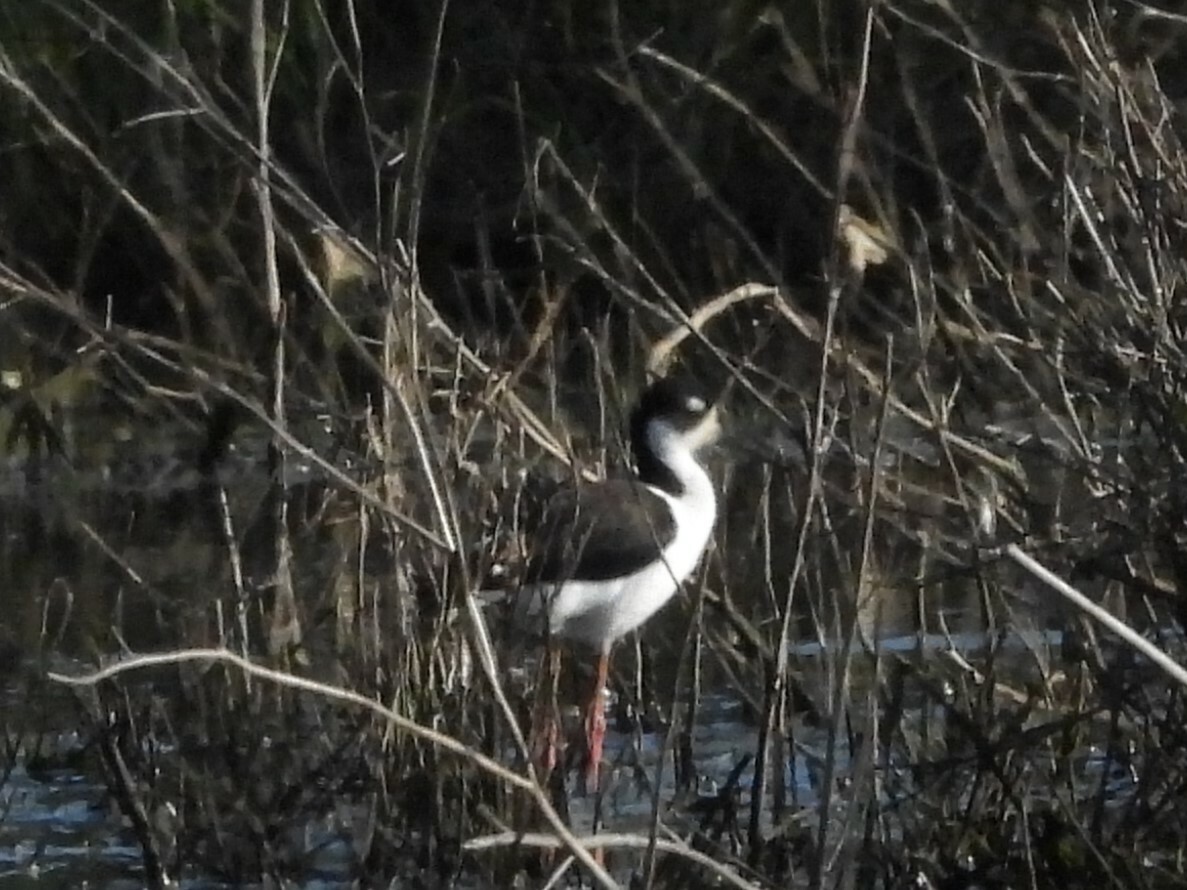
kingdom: Animalia
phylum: Chordata
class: Aves
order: Charadriiformes
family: Recurvirostridae
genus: Himantopus
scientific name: Himantopus mexicanus
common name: Black-necked stilt
